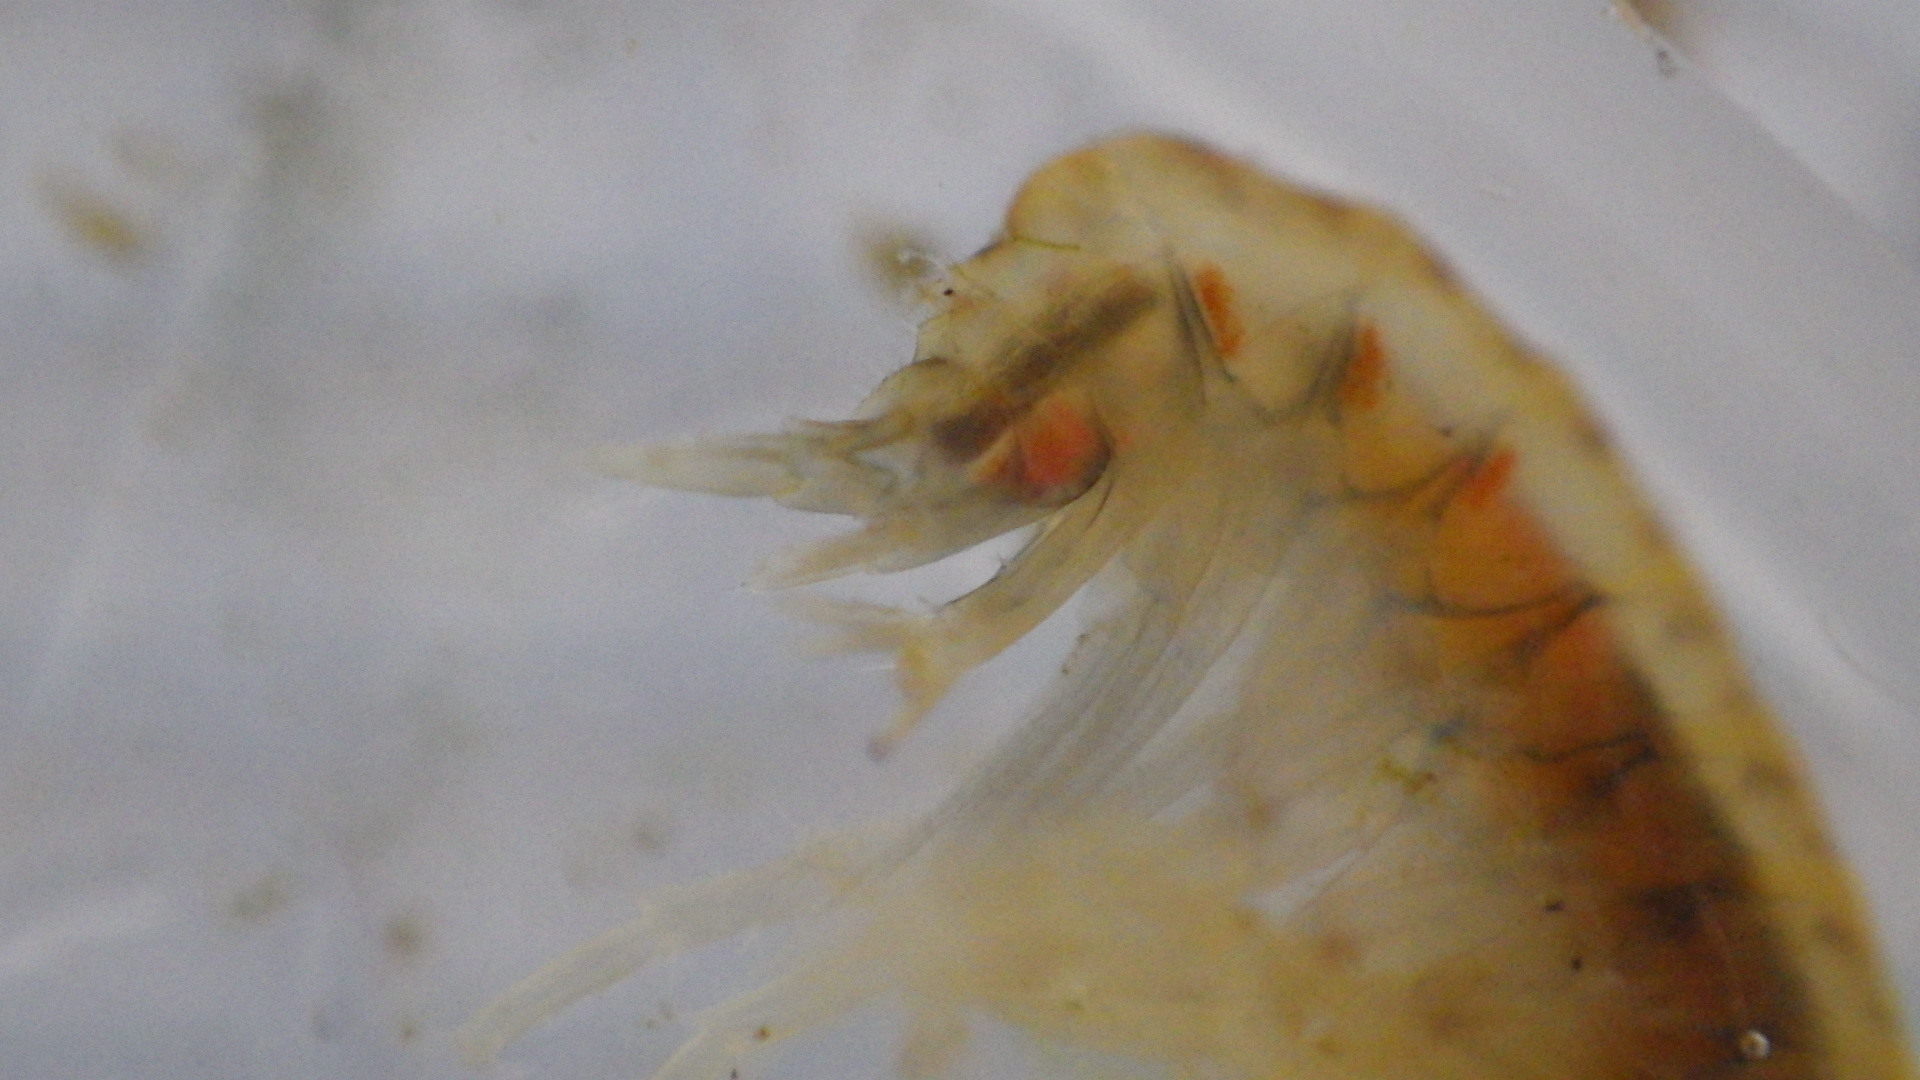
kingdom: Animalia
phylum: Arthropoda
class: Malacostraca
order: Amphipoda
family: Gammaridae
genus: Gammarus
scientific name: Gammarus fasciatus
